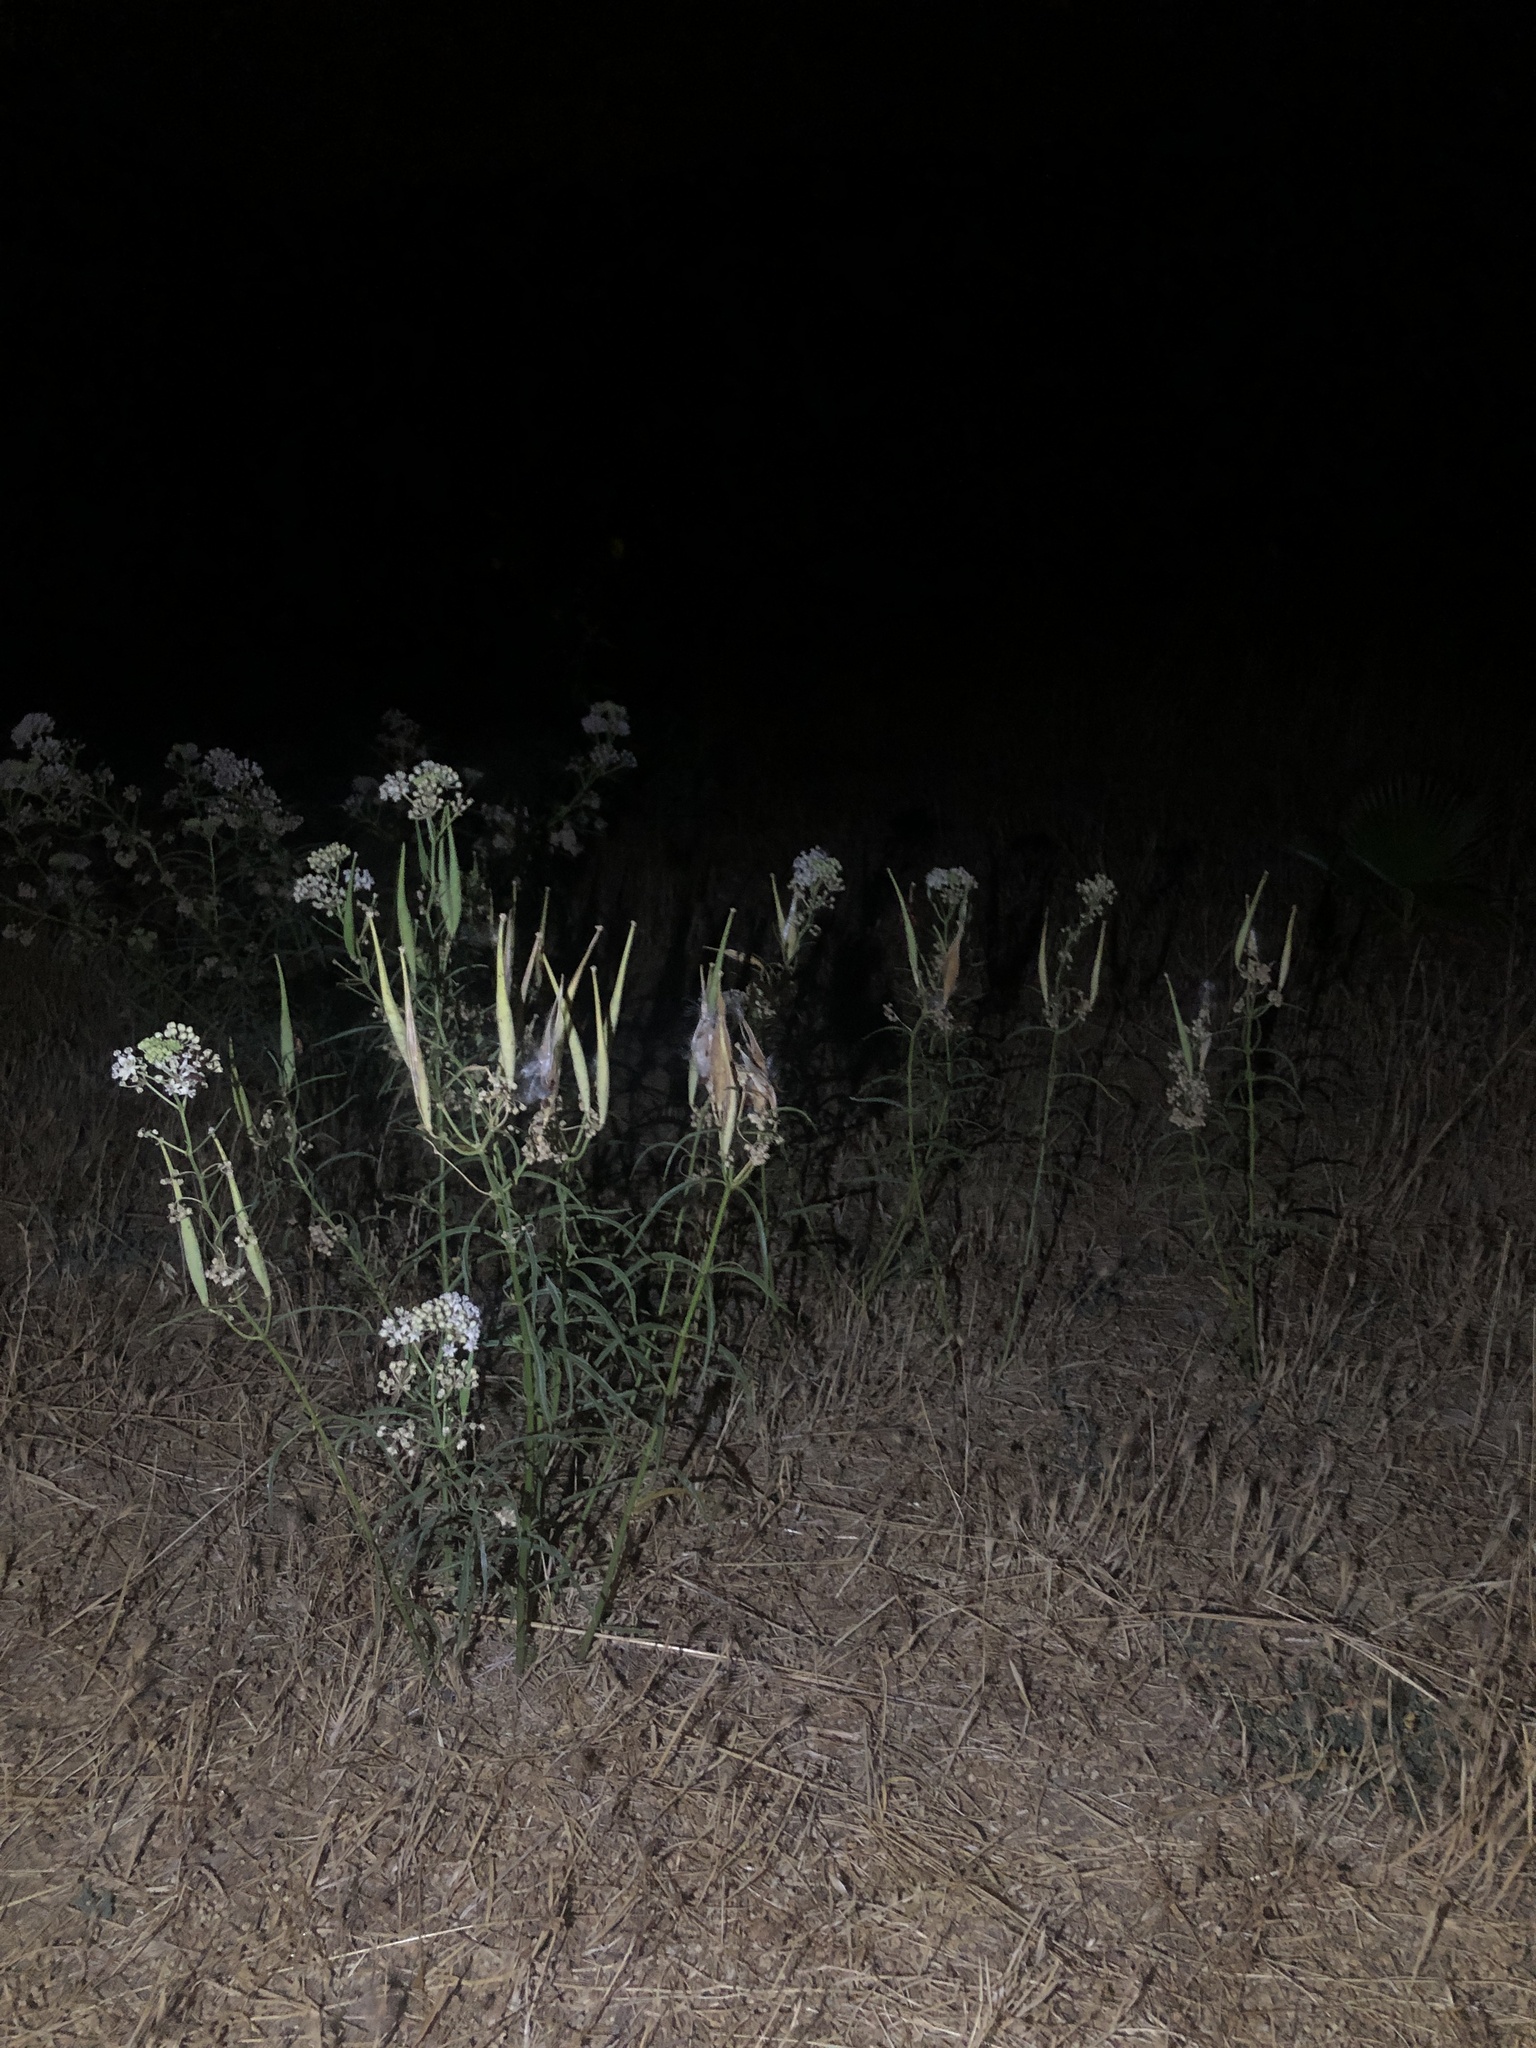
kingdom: Plantae
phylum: Tracheophyta
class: Magnoliopsida
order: Gentianales
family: Apocynaceae
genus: Asclepias
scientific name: Asclepias fascicularis
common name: Mexican milkweed
